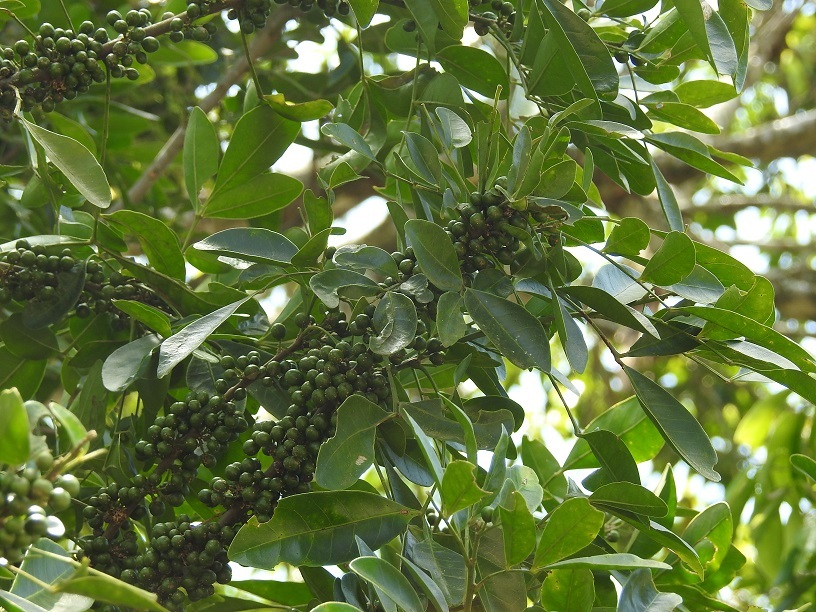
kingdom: Plantae
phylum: Tracheophyta
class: Magnoliopsida
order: Sapindales
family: Meliaceae
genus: Trichilia
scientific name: Trichilia havanensis
